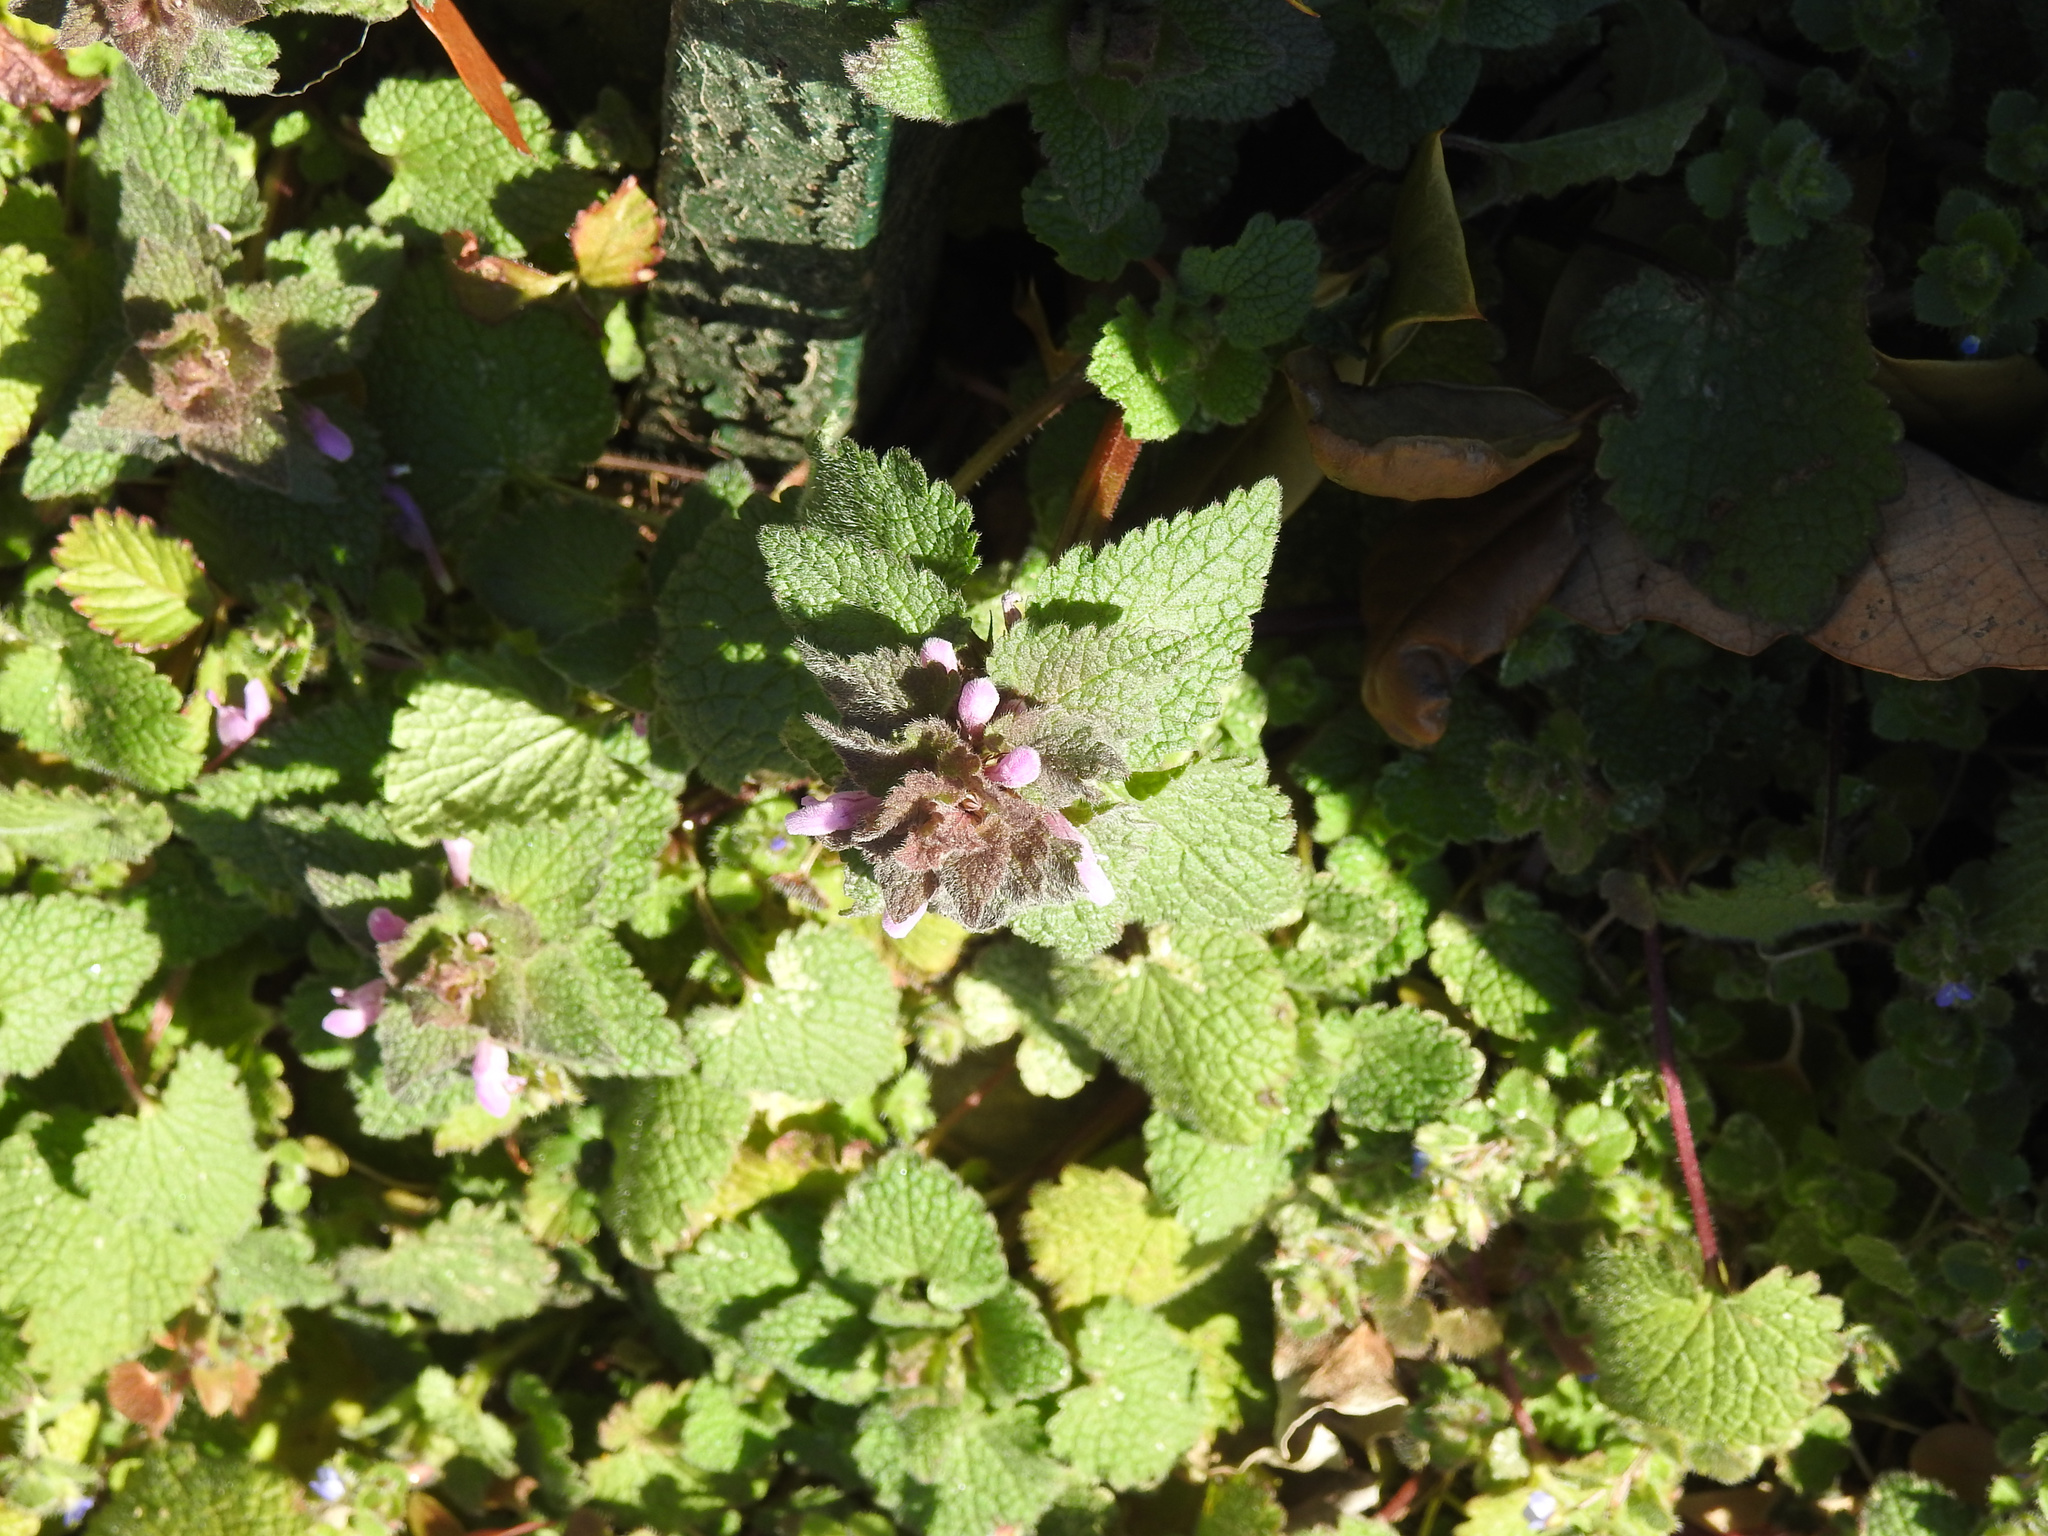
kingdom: Plantae
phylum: Tracheophyta
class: Magnoliopsida
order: Lamiales
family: Lamiaceae
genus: Lamium
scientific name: Lamium purpureum
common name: Red dead-nettle
